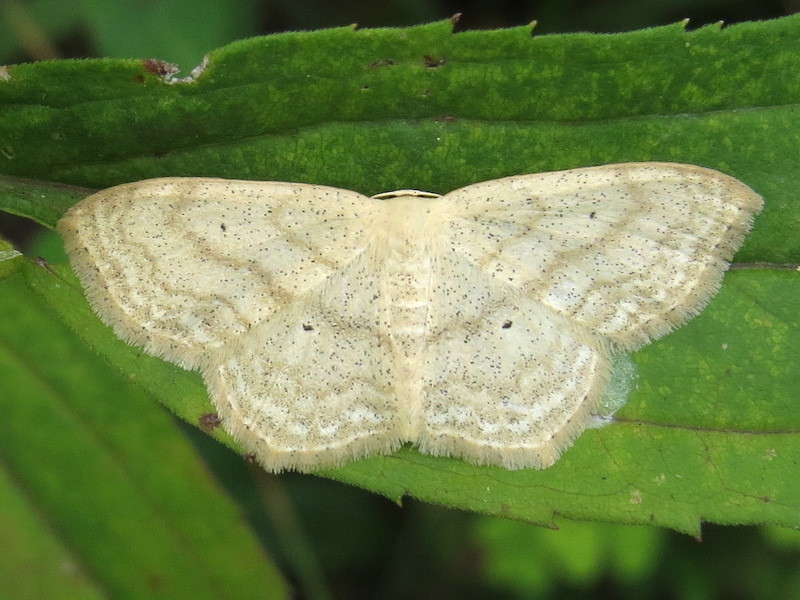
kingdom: Animalia
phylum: Arthropoda
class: Insecta
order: Lepidoptera
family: Geometridae
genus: Scopula
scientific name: Scopula limboundata
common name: Large lace border
